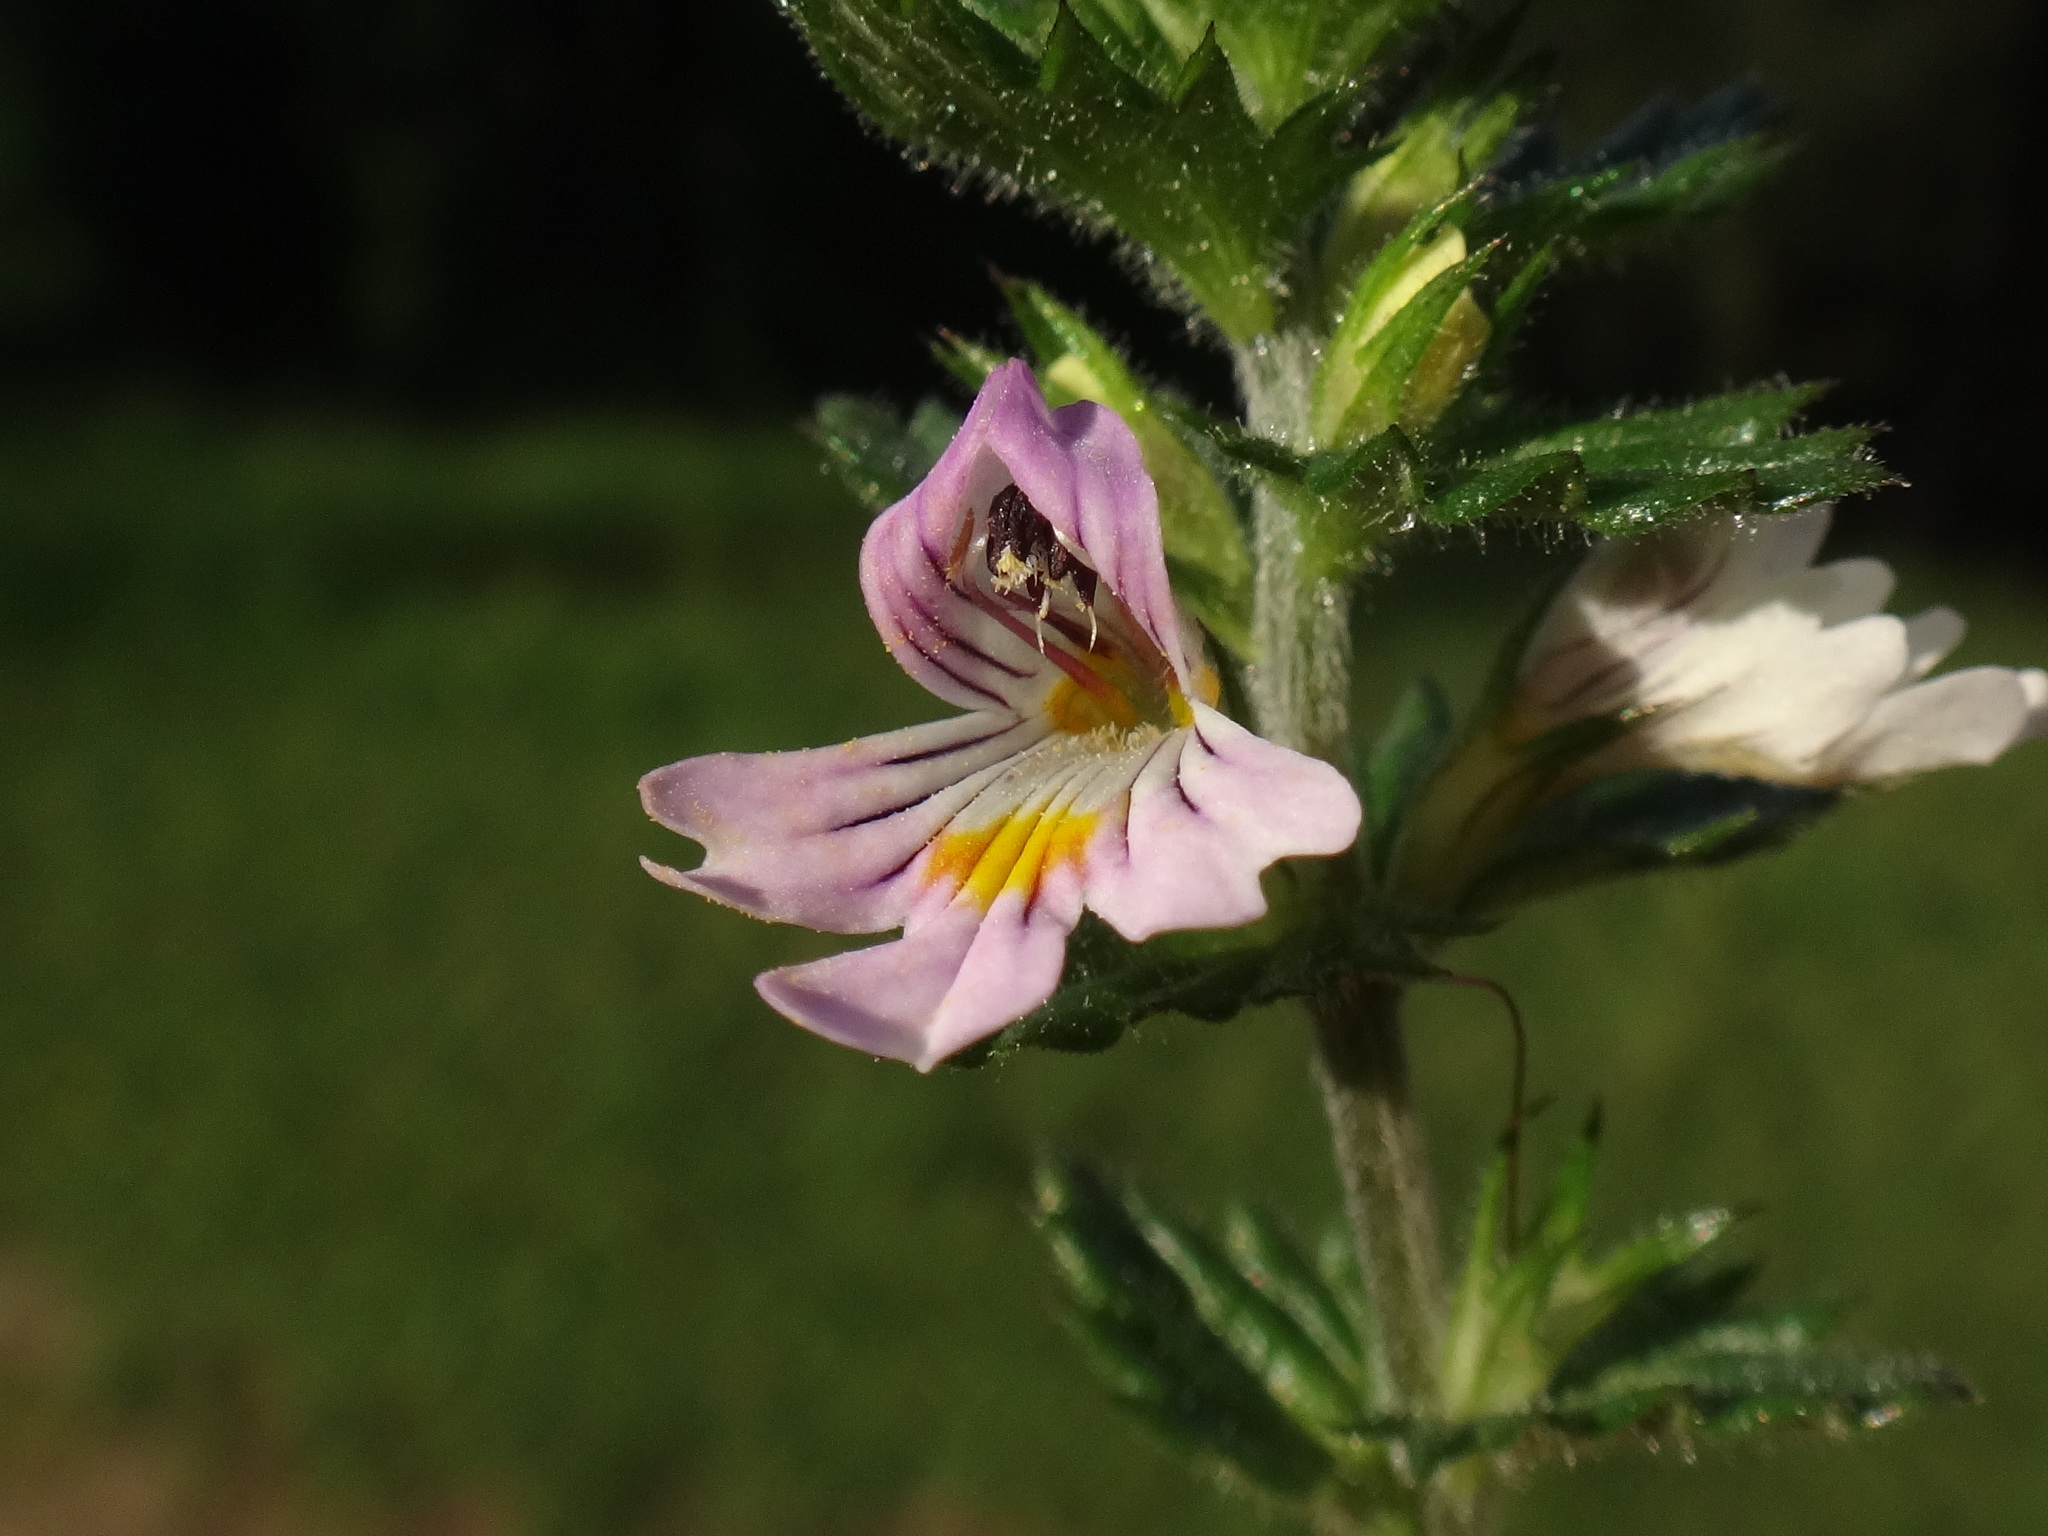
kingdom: Plantae
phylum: Tracheophyta
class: Magnoliopsida
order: Lamiales
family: Orobanchaceae
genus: Euphrasia
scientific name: Euphrasia officinalis
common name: Eyebright
